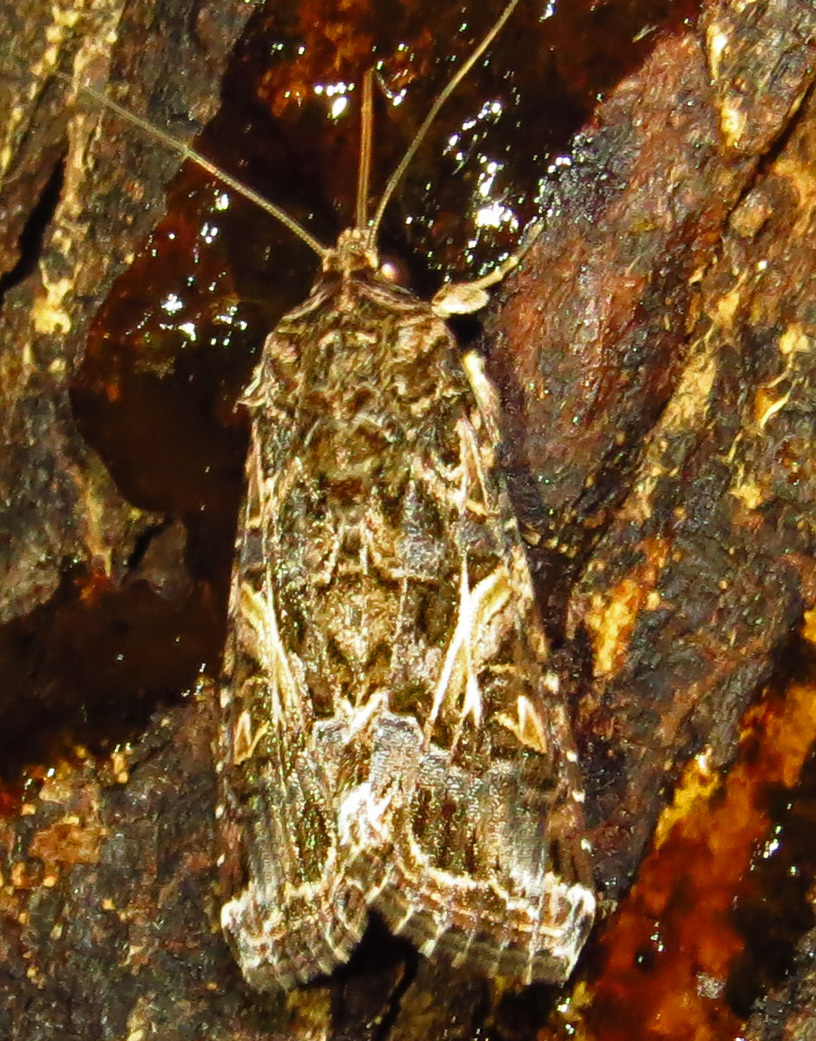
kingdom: Animalia
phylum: Arthropoda
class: Insecta
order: Lepidoptera
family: Noctuidae
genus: Spodoptera
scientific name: Spodoptera ornithogalli
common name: Yellow-striped armyworm
